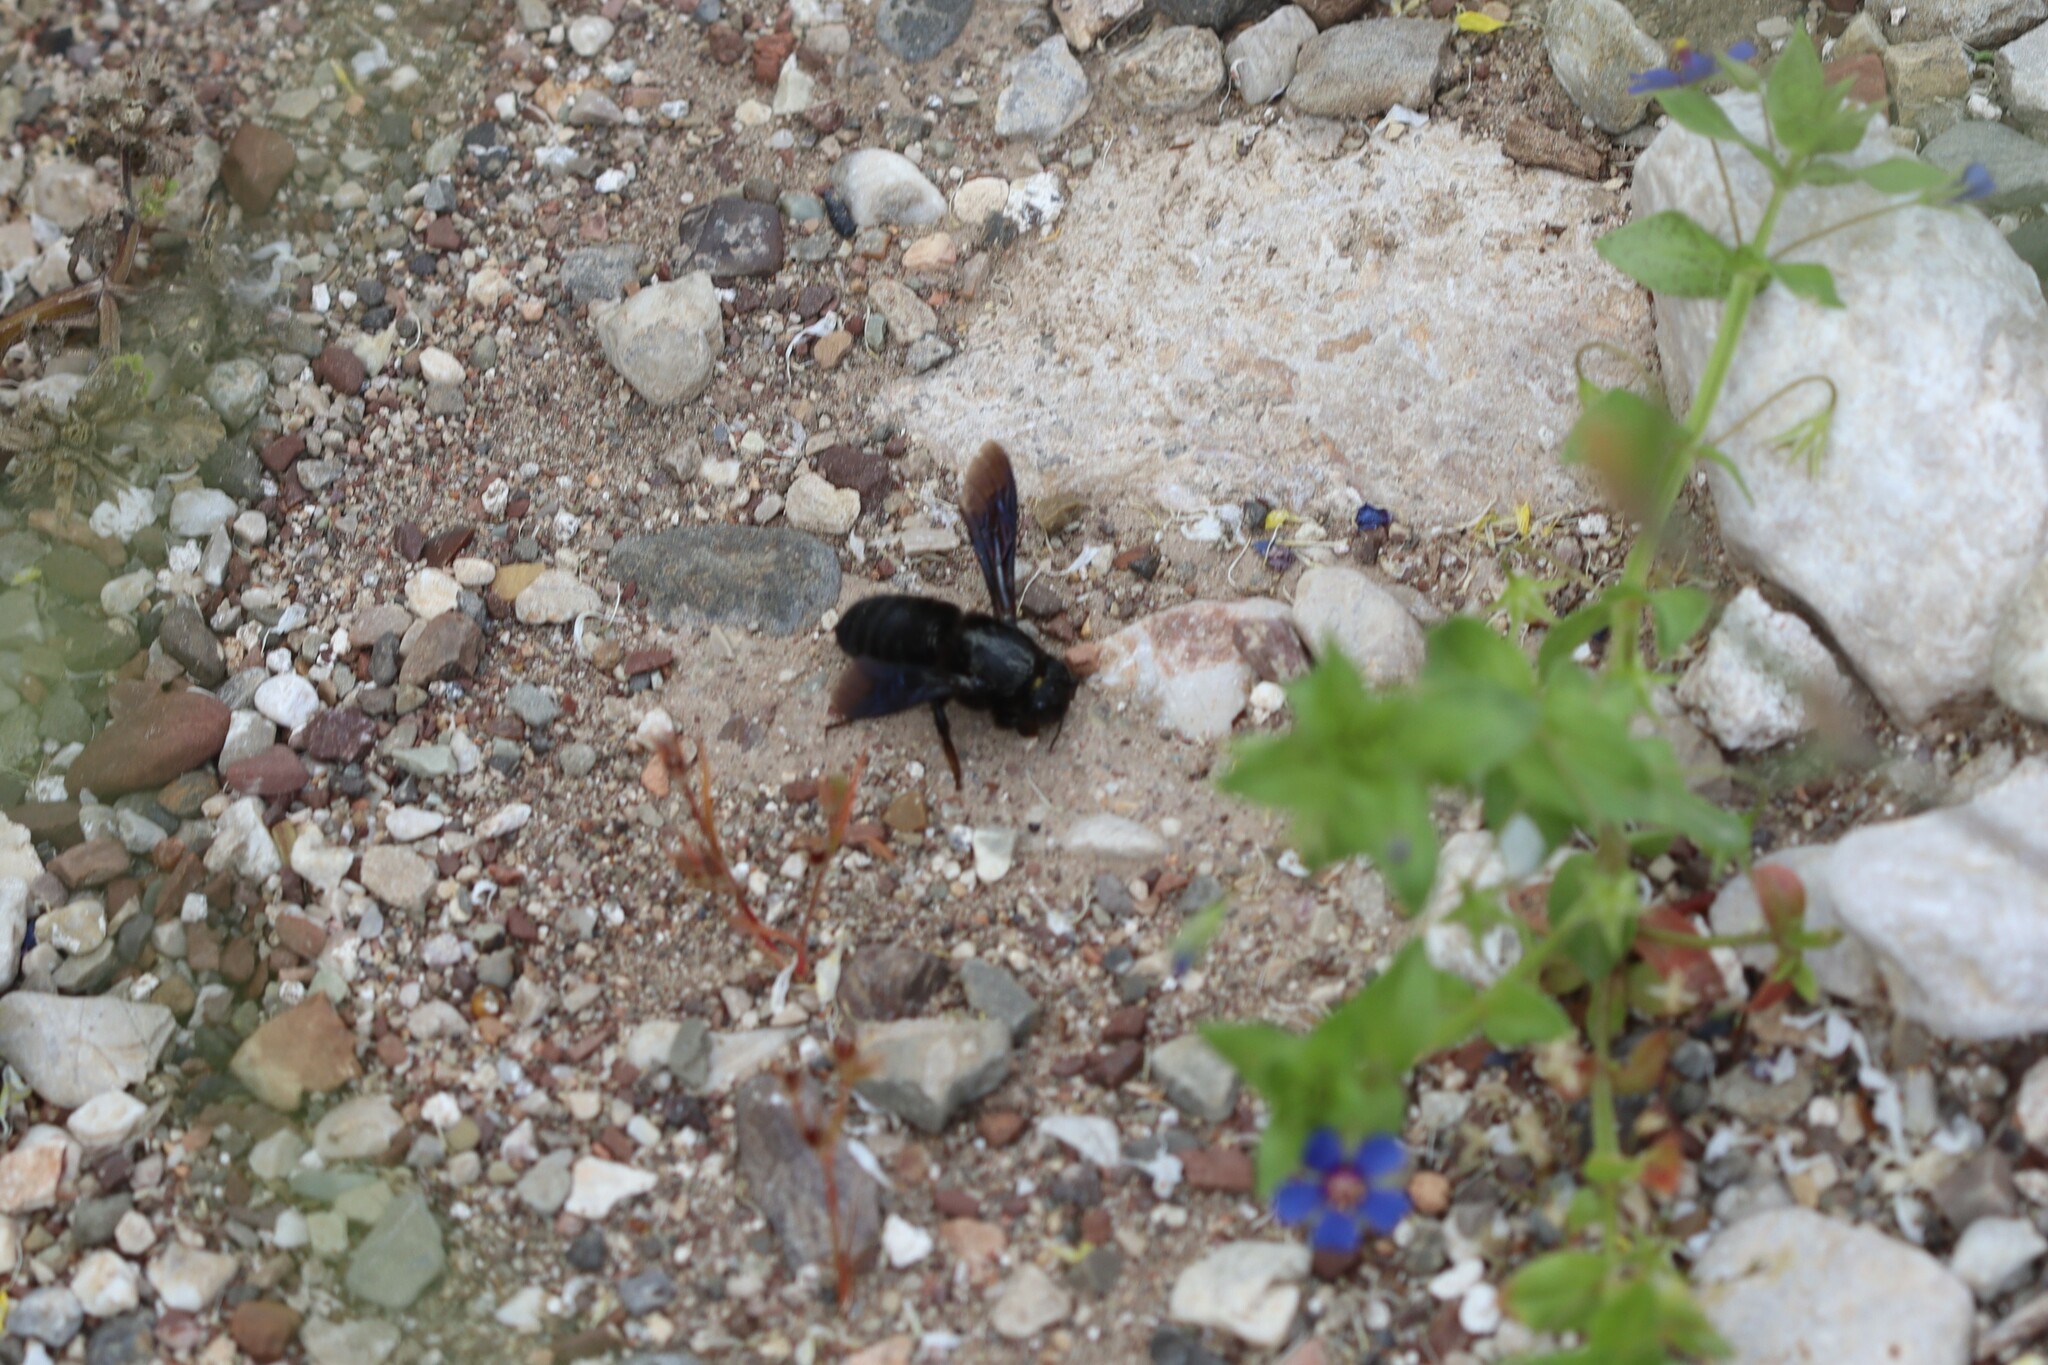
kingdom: Animalia
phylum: Arthropoda
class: Insecta
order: Hymenoptera
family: Megachilidae
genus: Megachile
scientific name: Megachile parietina
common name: Black mud bee
